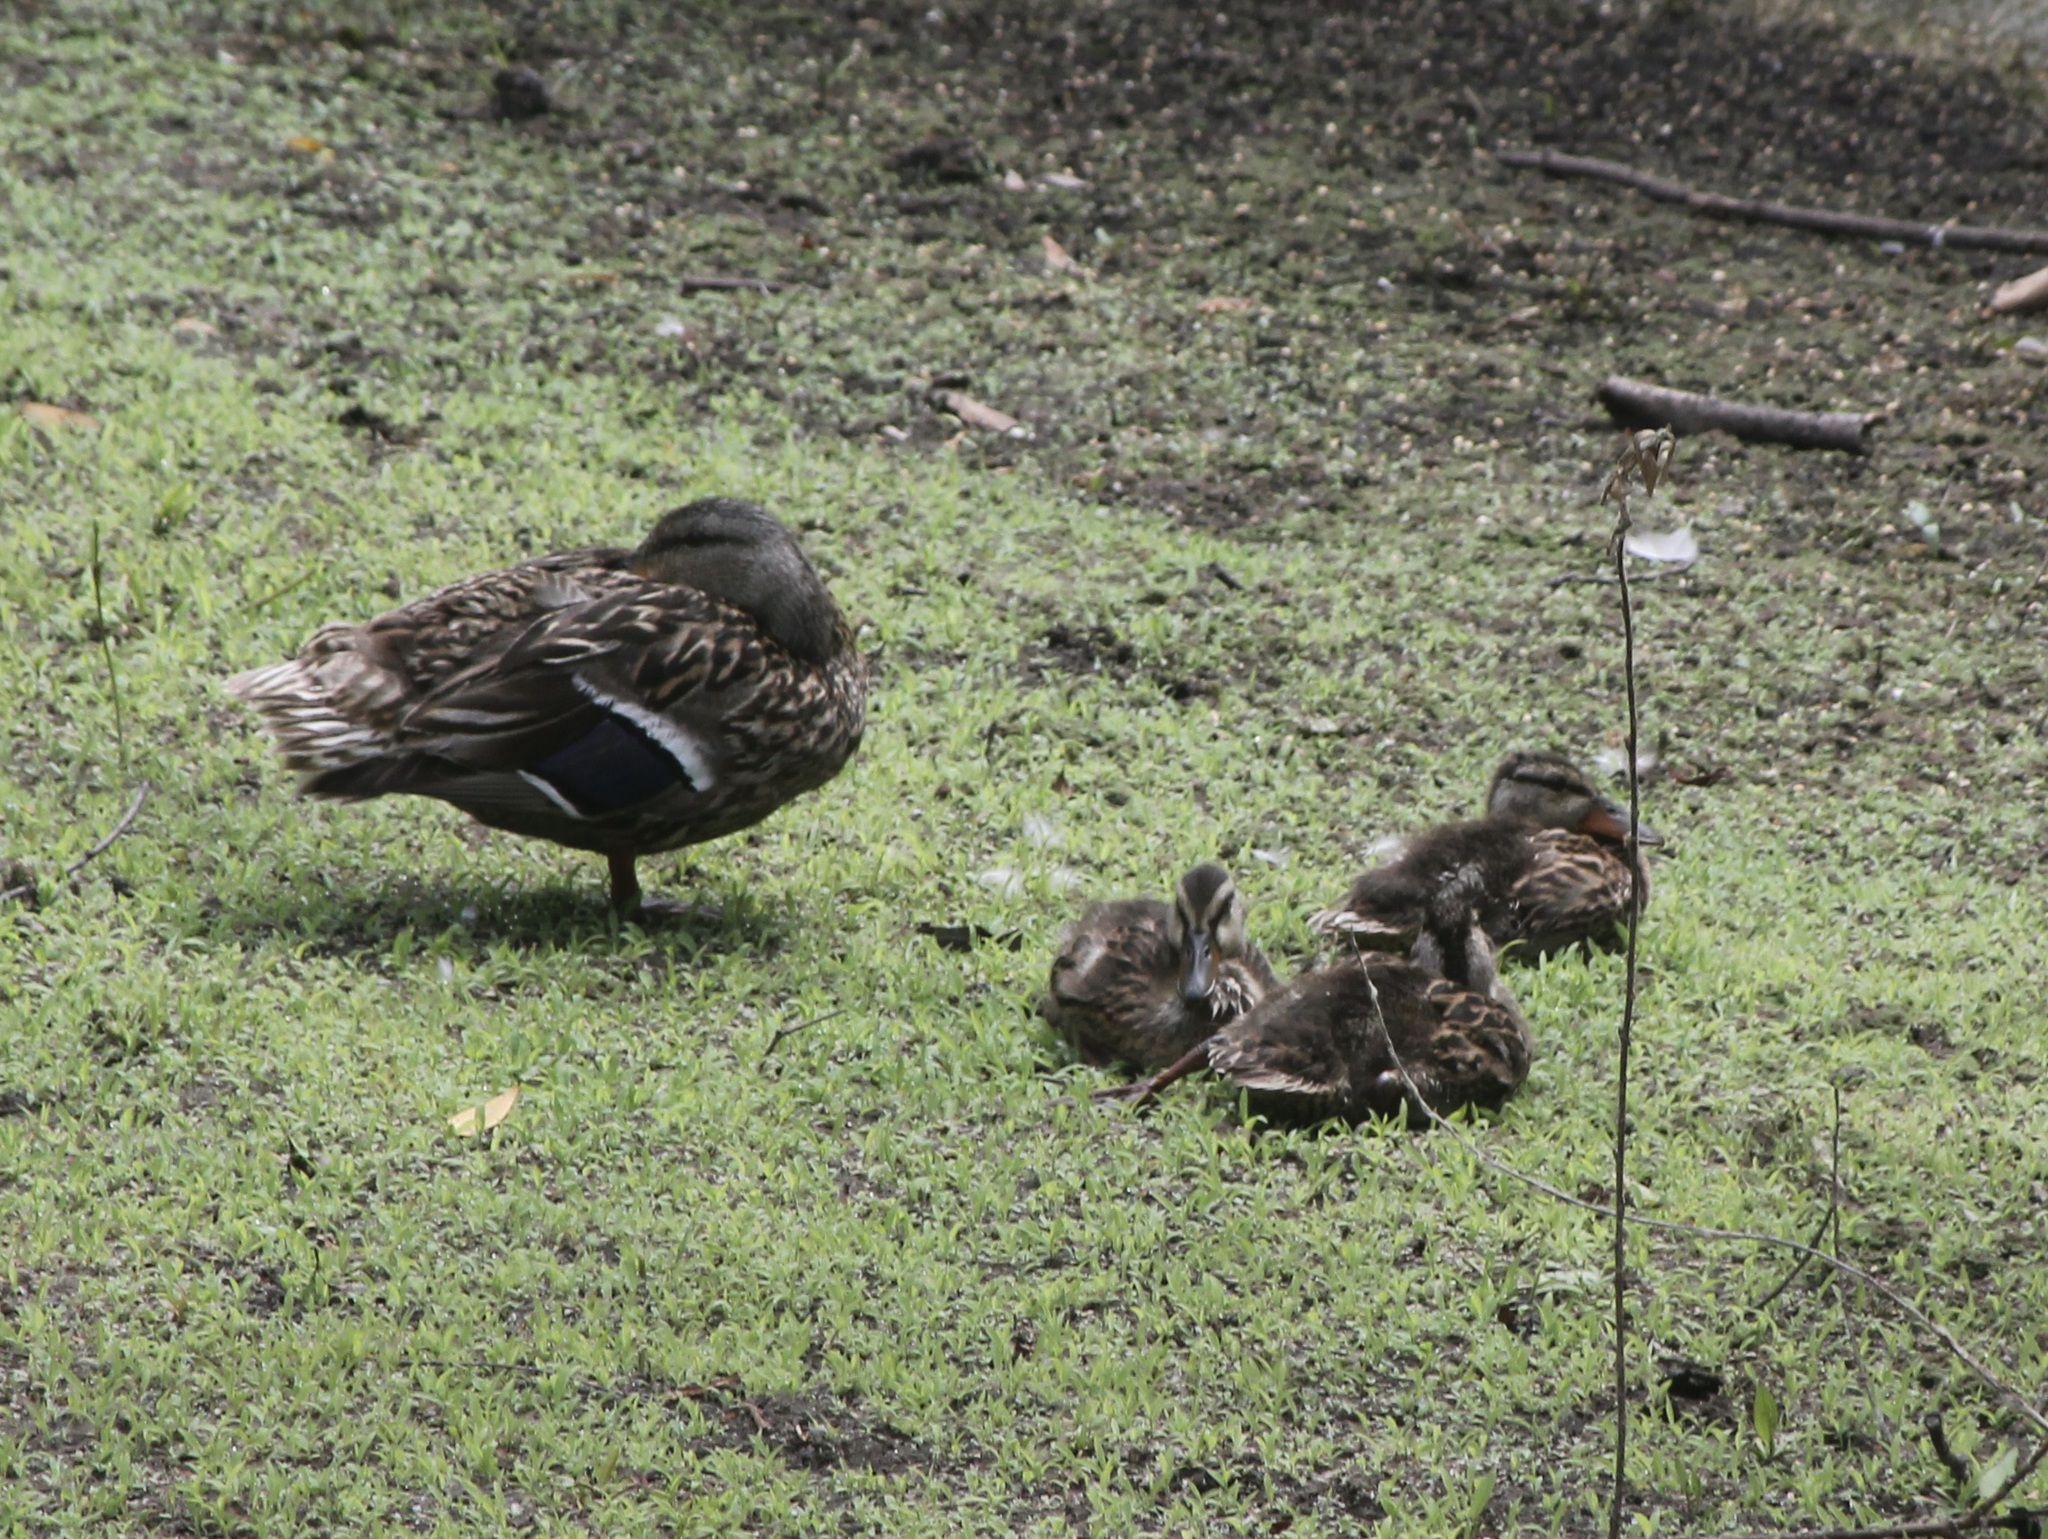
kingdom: Animalia
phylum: Chordata
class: Aves
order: Anseriformes
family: Anatidae
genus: Anas
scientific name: Anas platyrhynchos
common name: Mallard
